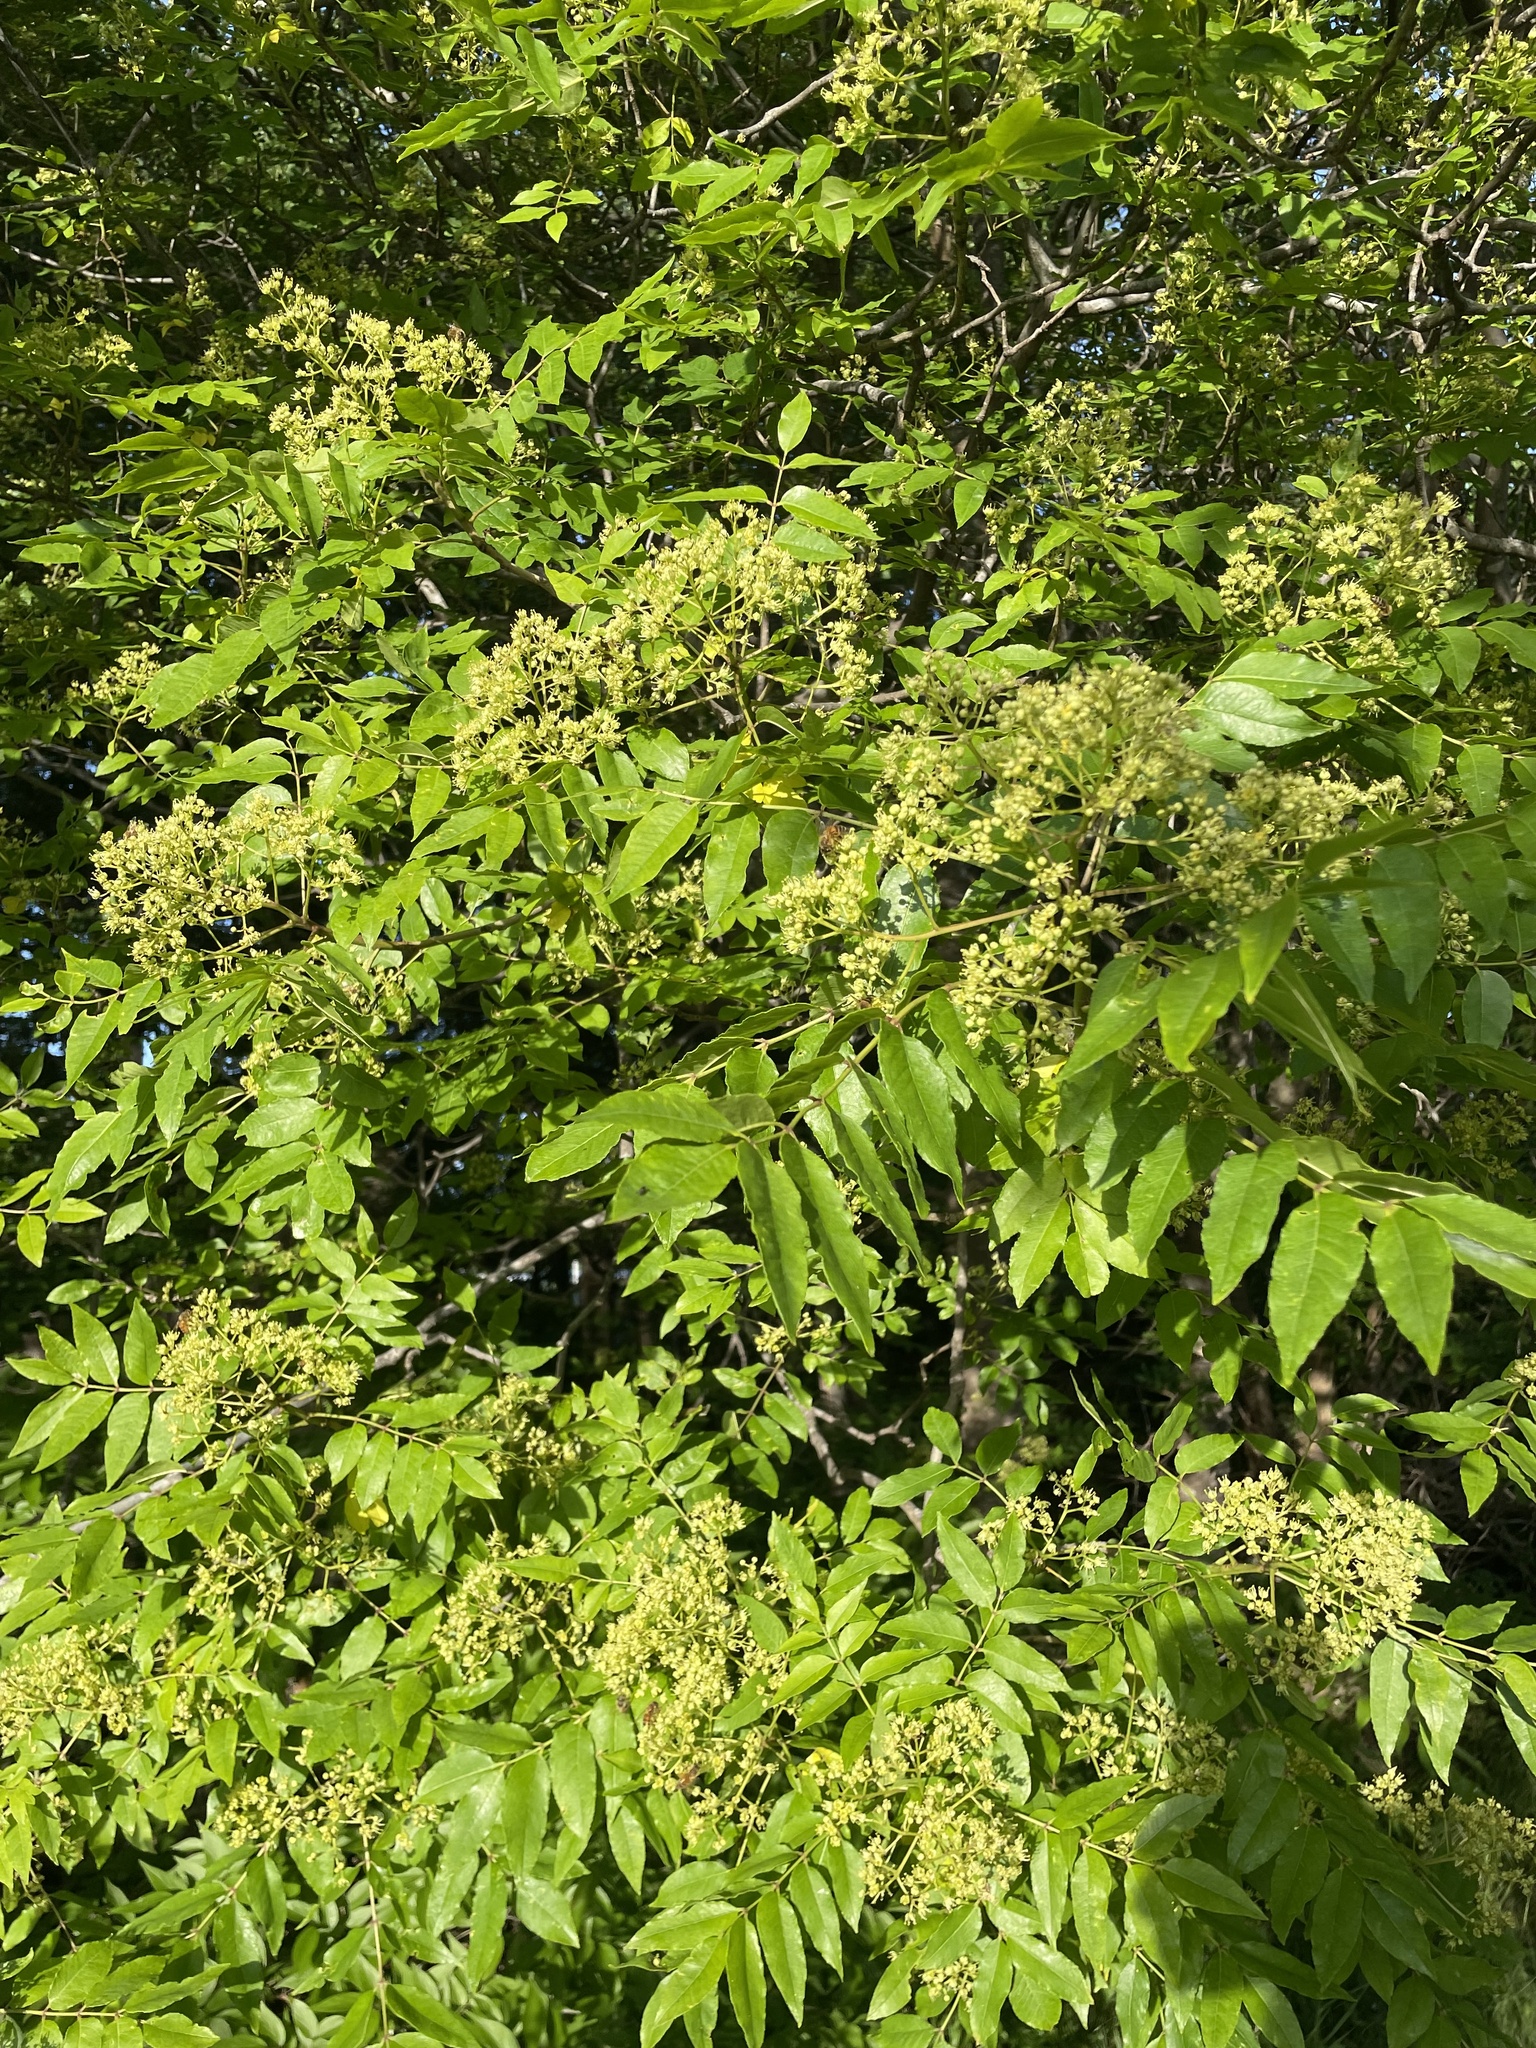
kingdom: Plantae
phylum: Tracheophyta
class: Magnoliopsida
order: Sapindales
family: Rutaceae
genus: Zanthoxylum
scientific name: Zanthoxylum clava-herculis
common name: Hercules'-club
